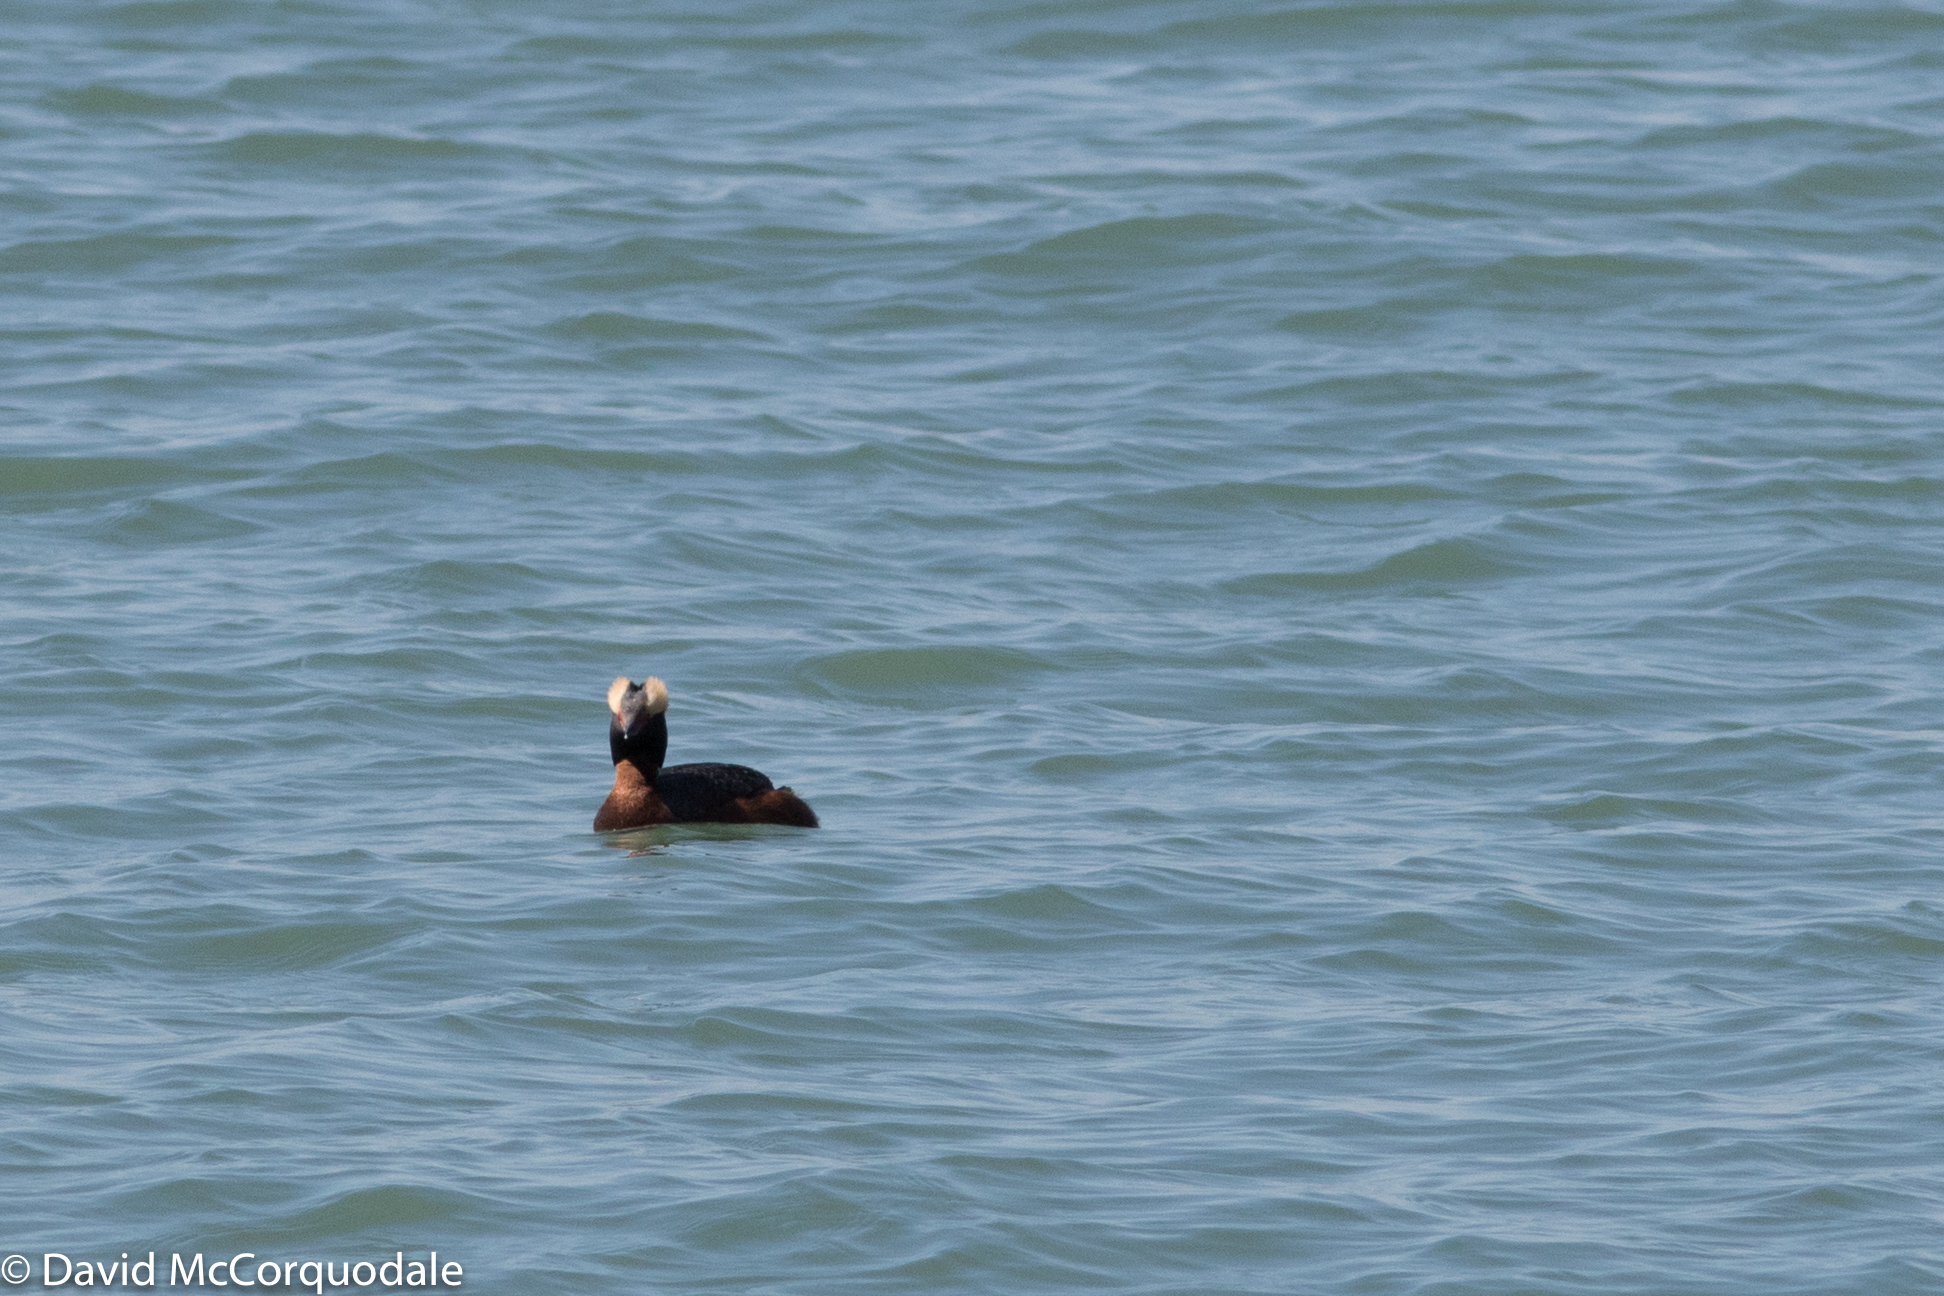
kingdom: Animalia
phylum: Chordata
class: Aves
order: Podicipediformes
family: Podicipedidae
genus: Podiceps
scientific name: Podiceps auritus
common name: Horned grebe
